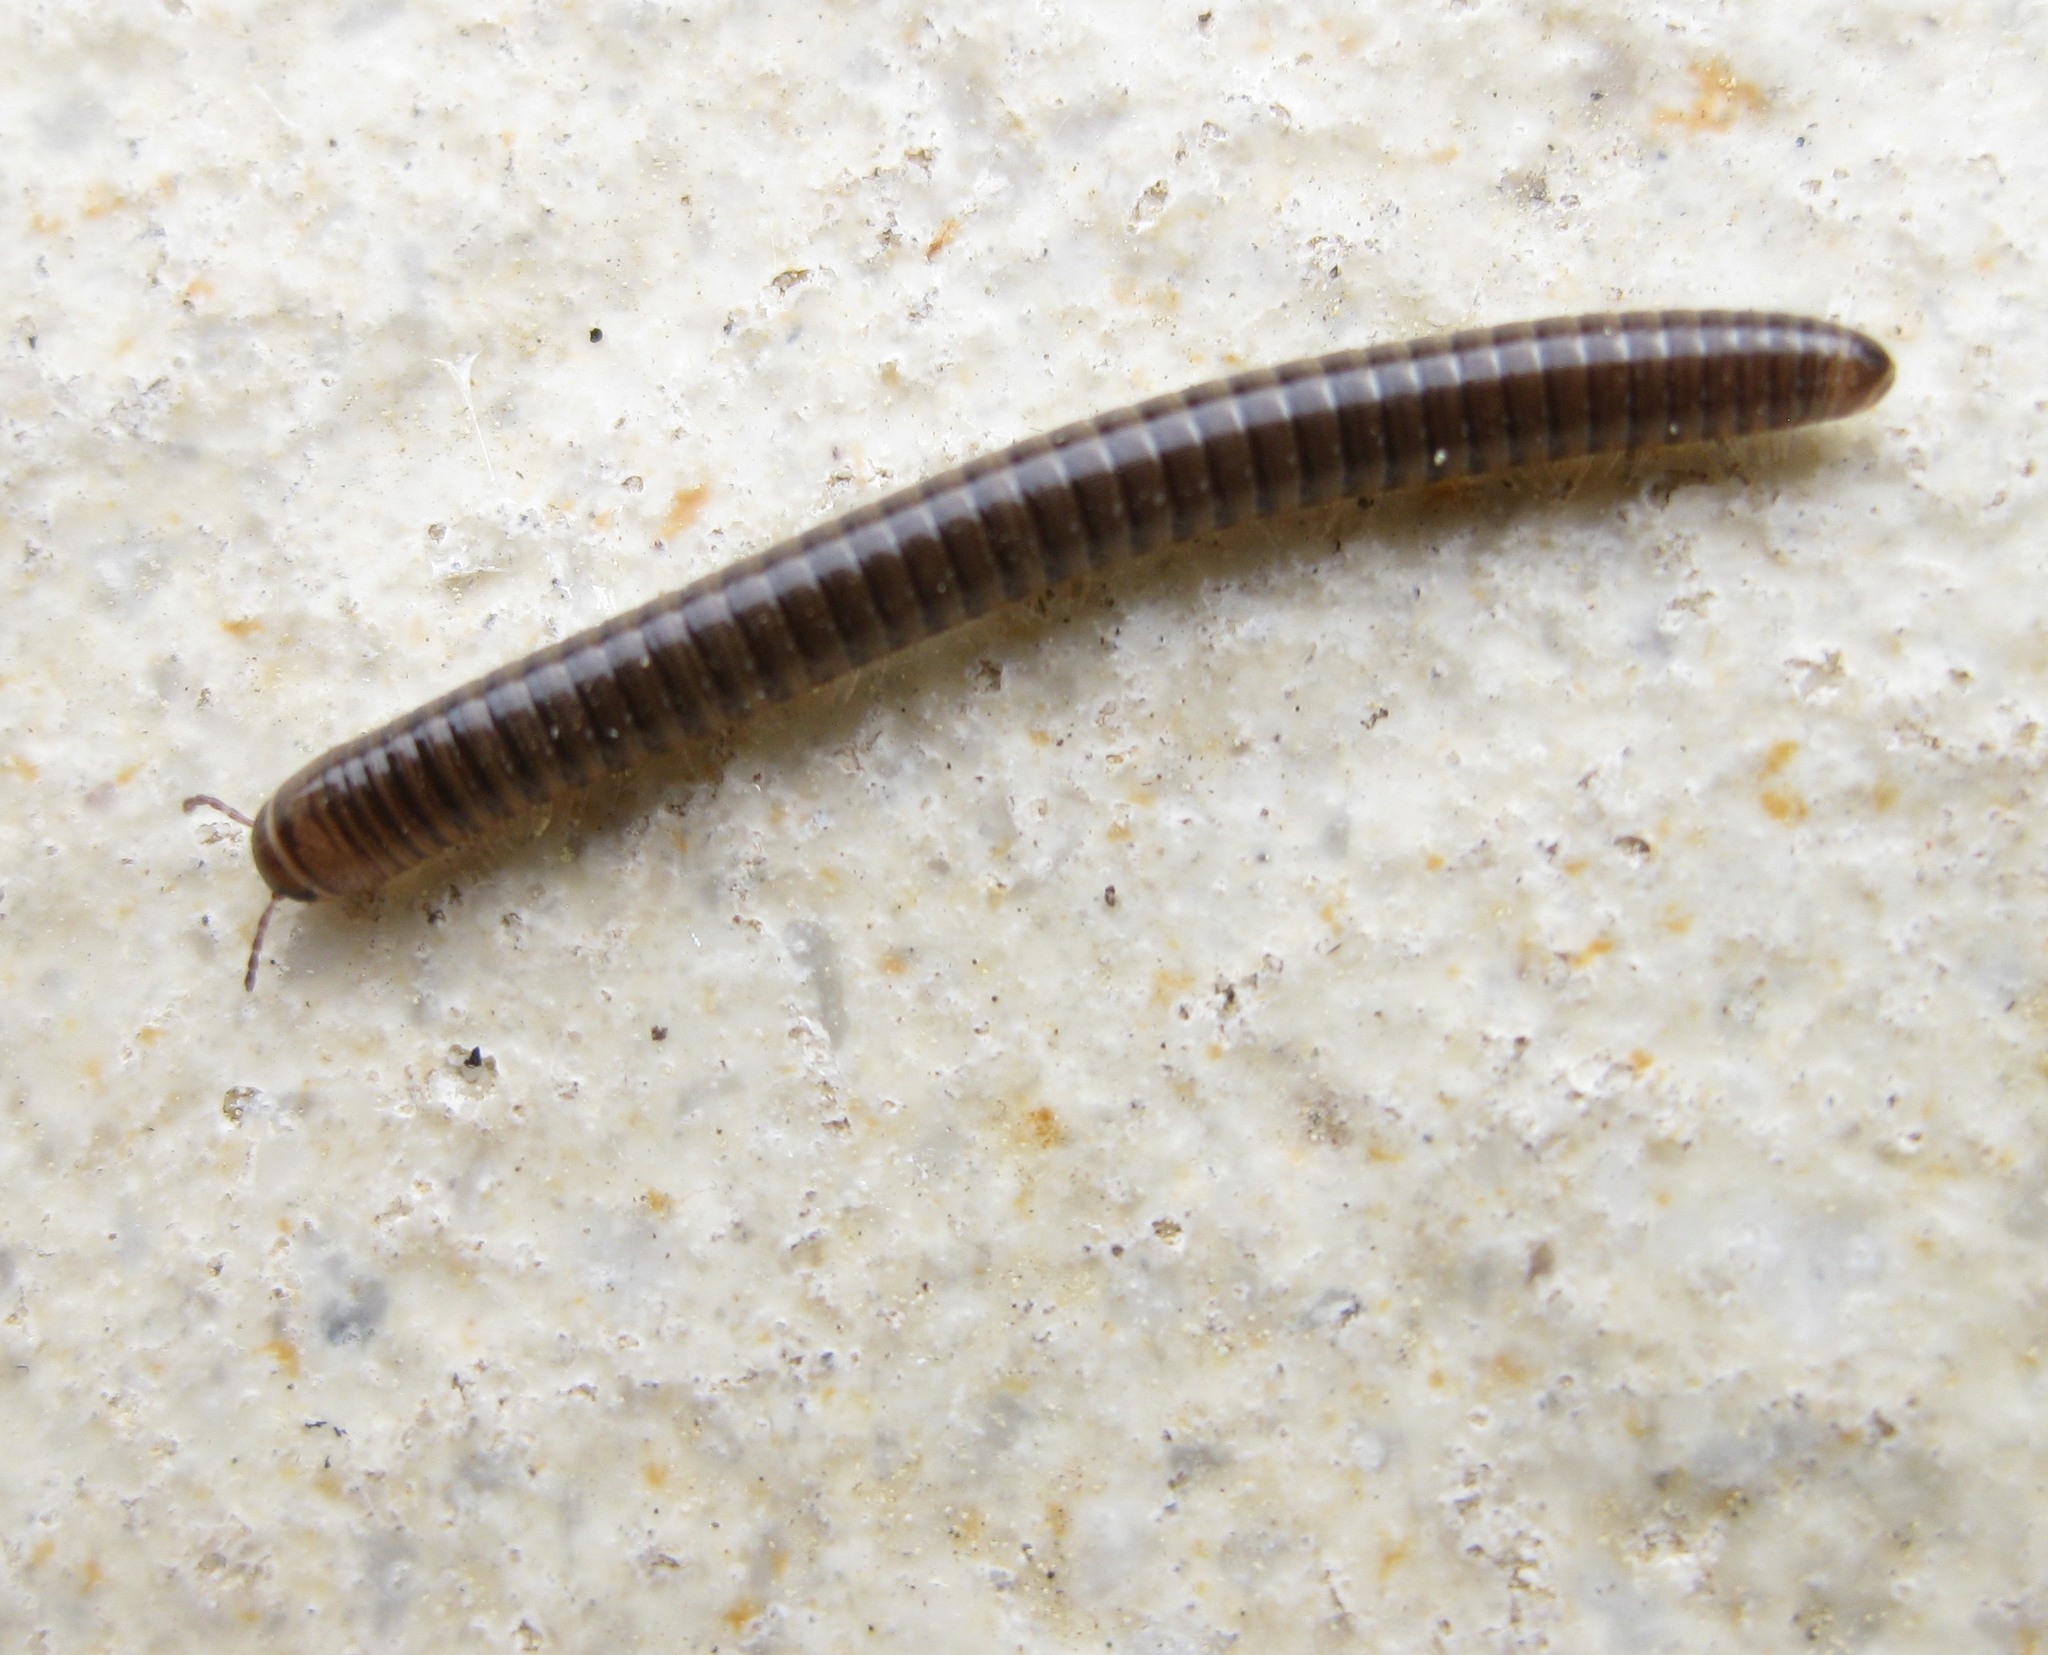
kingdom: Animalia
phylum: Arthropoda
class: Diplopoda
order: Julida
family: Julidae
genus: Cylindroiulus
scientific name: Cylindroiulus caeruleocinctus
